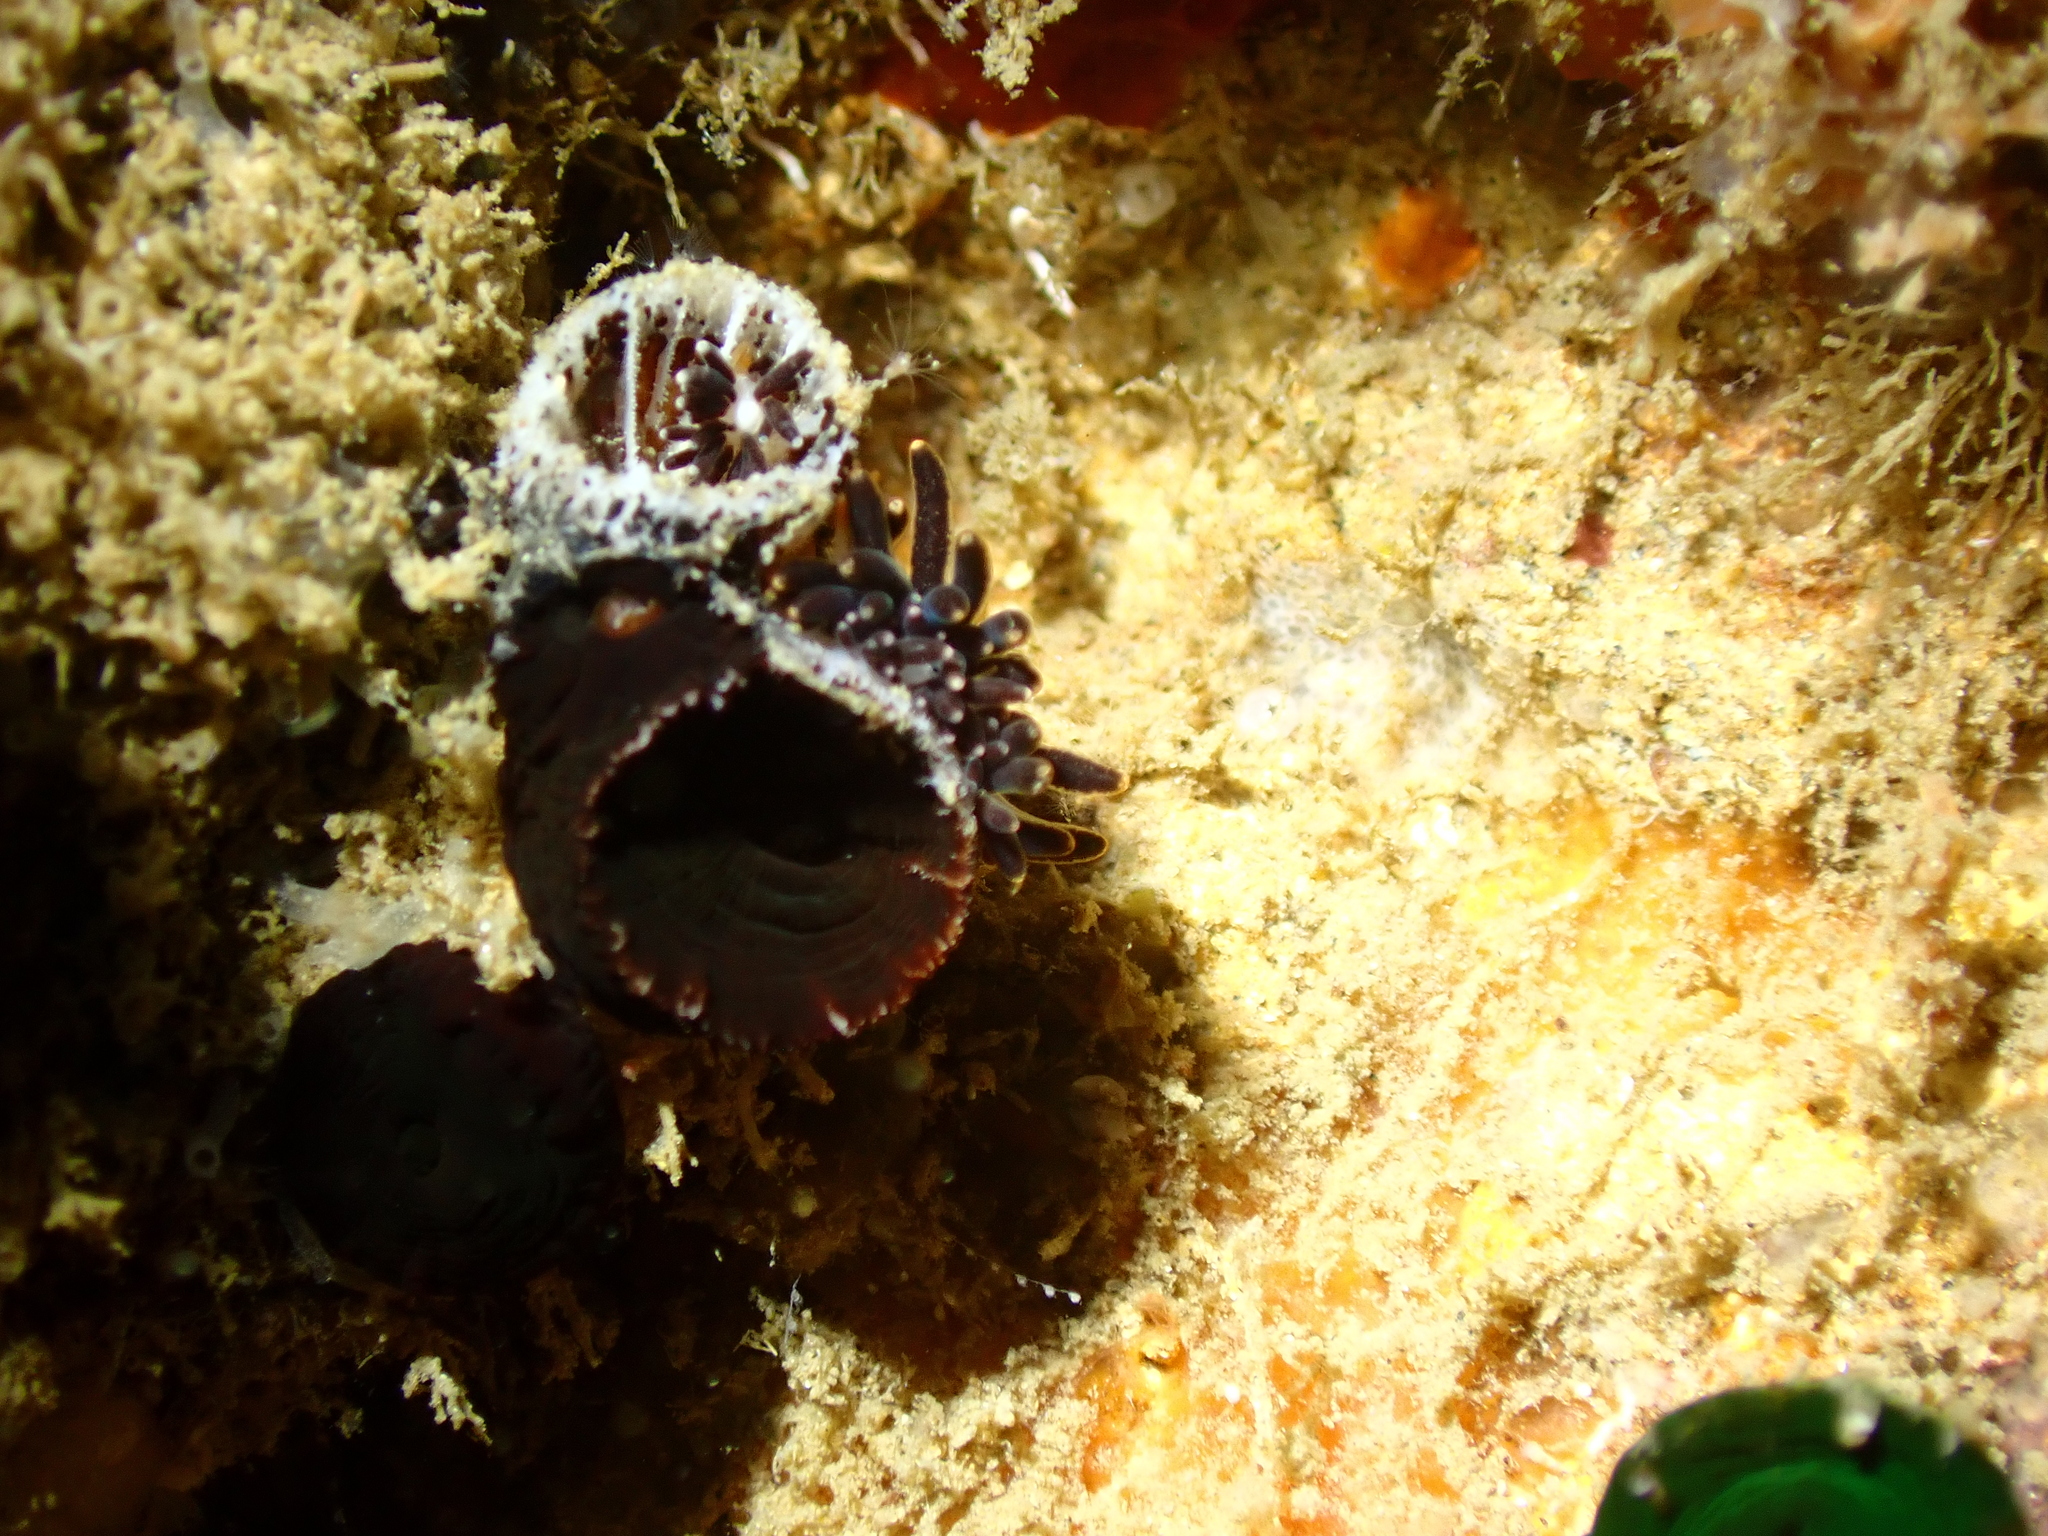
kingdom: Animalia
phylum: Mollusca
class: Gastropoda
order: Nudibranchia
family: Trinchesiidae
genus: Phestilla
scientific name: Phestilla melanobrachia
